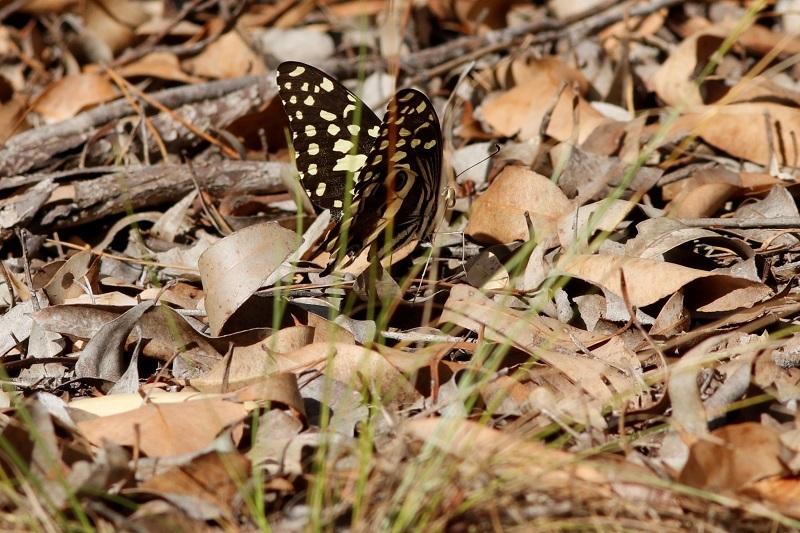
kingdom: Animalia
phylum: Arthropoda
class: Insecta
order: Lepidoptera
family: Papilionidae
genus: Papilio
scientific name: Papilio demodocus
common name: Christmas butterfly
